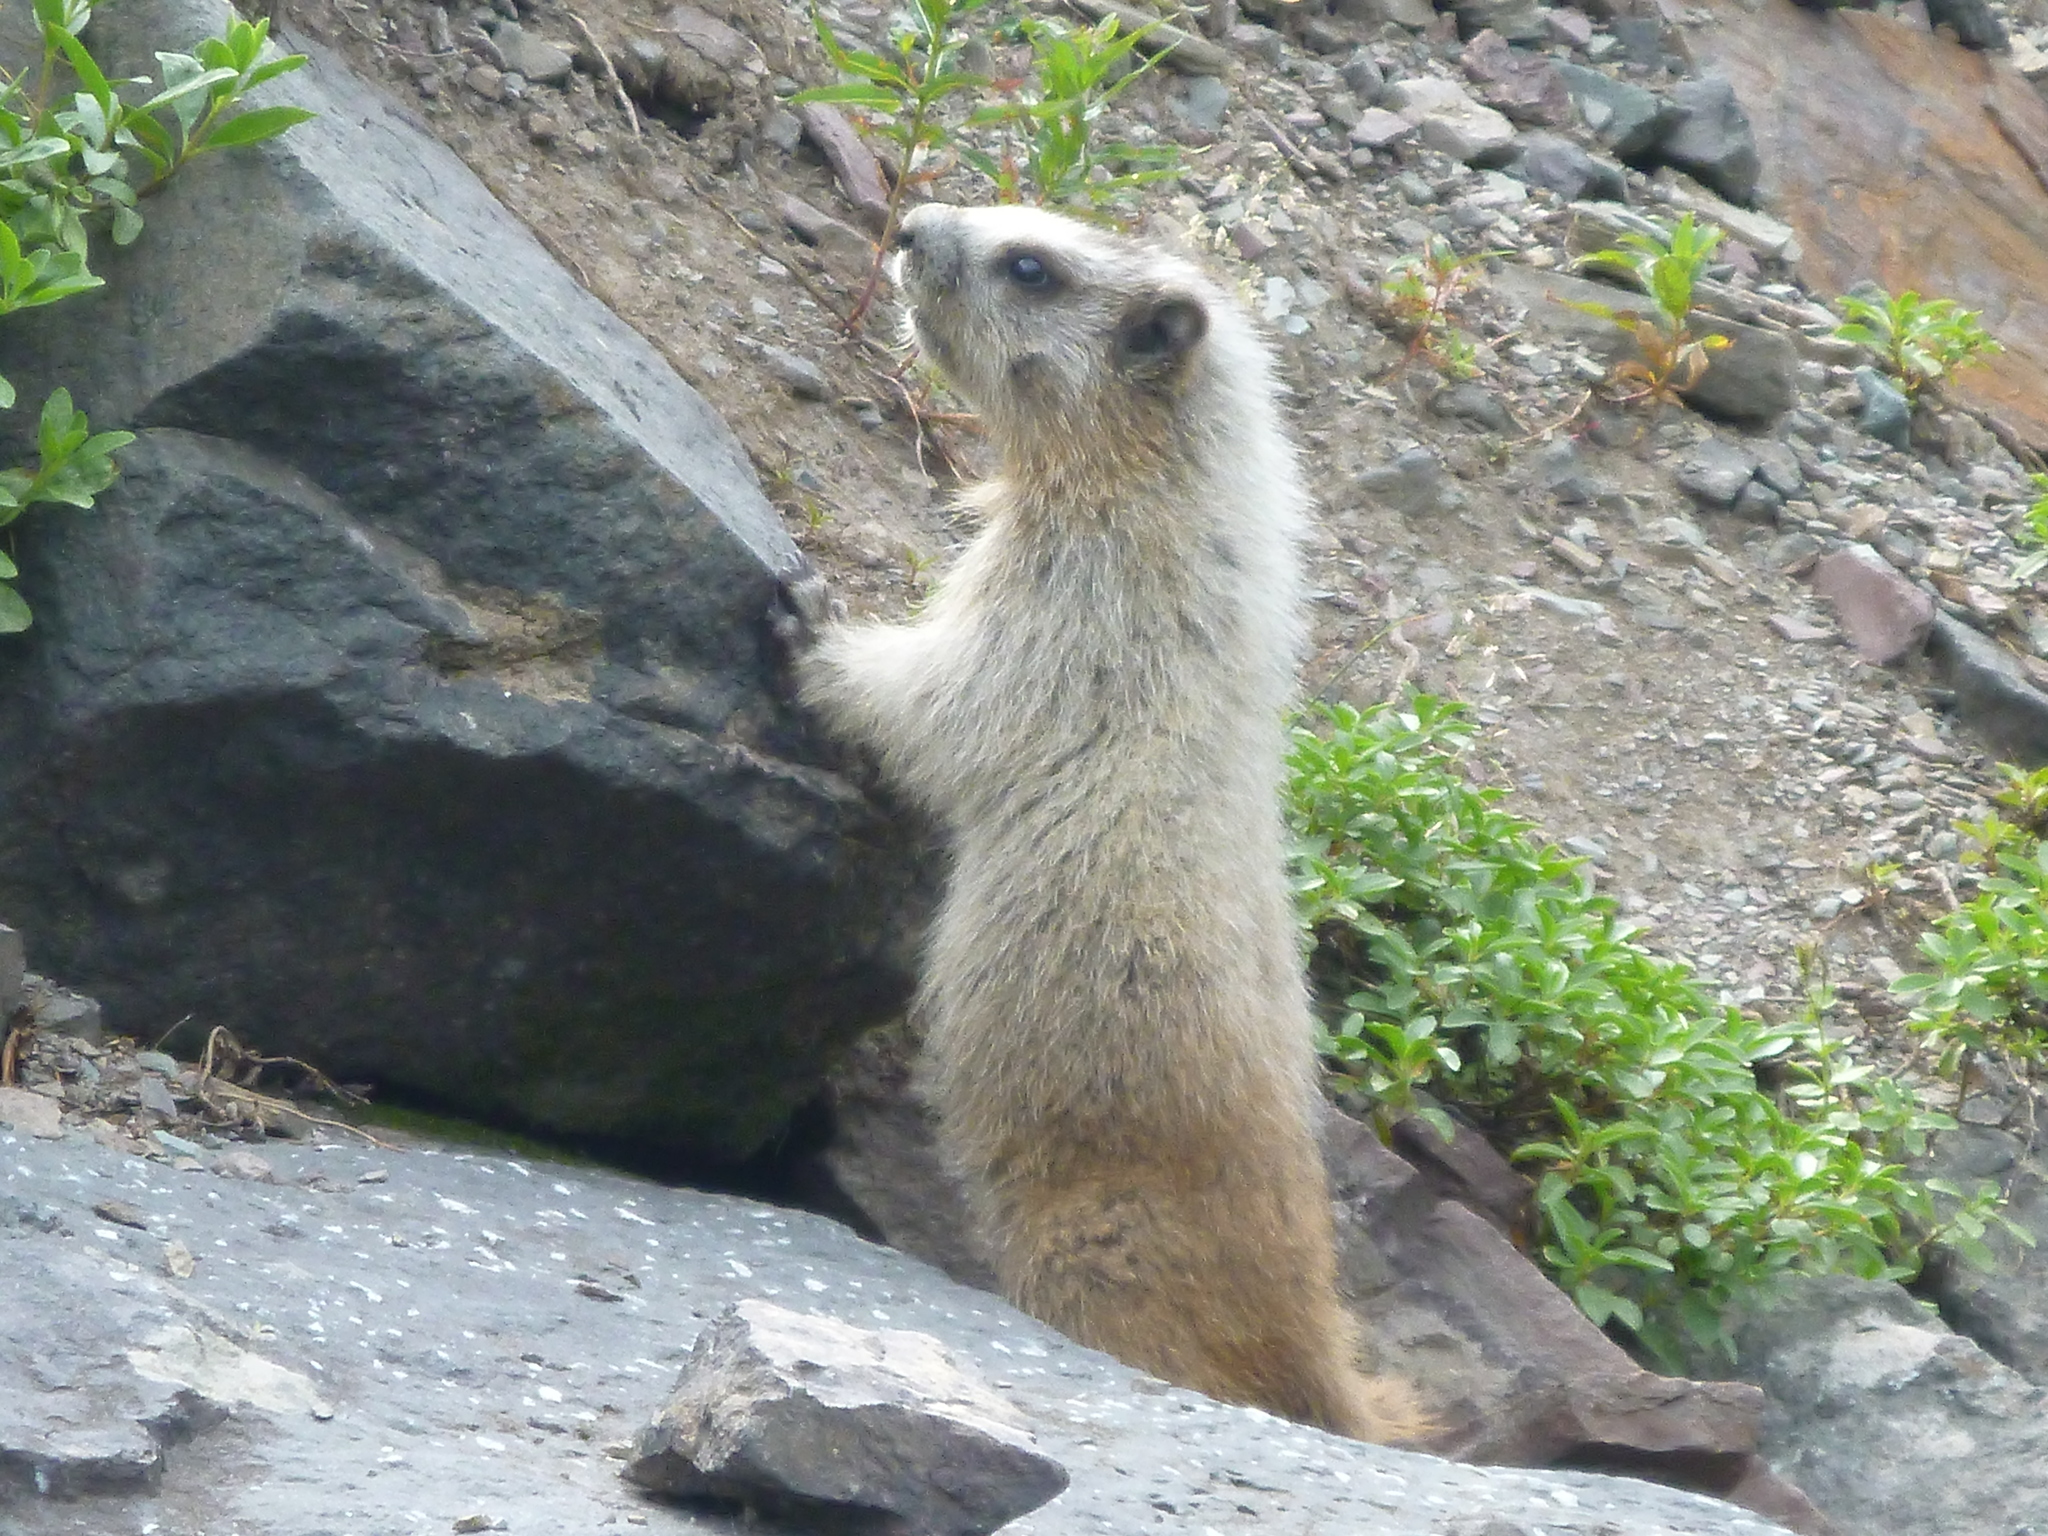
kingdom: Animalia
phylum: Chordata
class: Mammalia
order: Rodentia
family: Sciuridae
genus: Marmota
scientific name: Marmota caligata
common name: Hoary marmot
